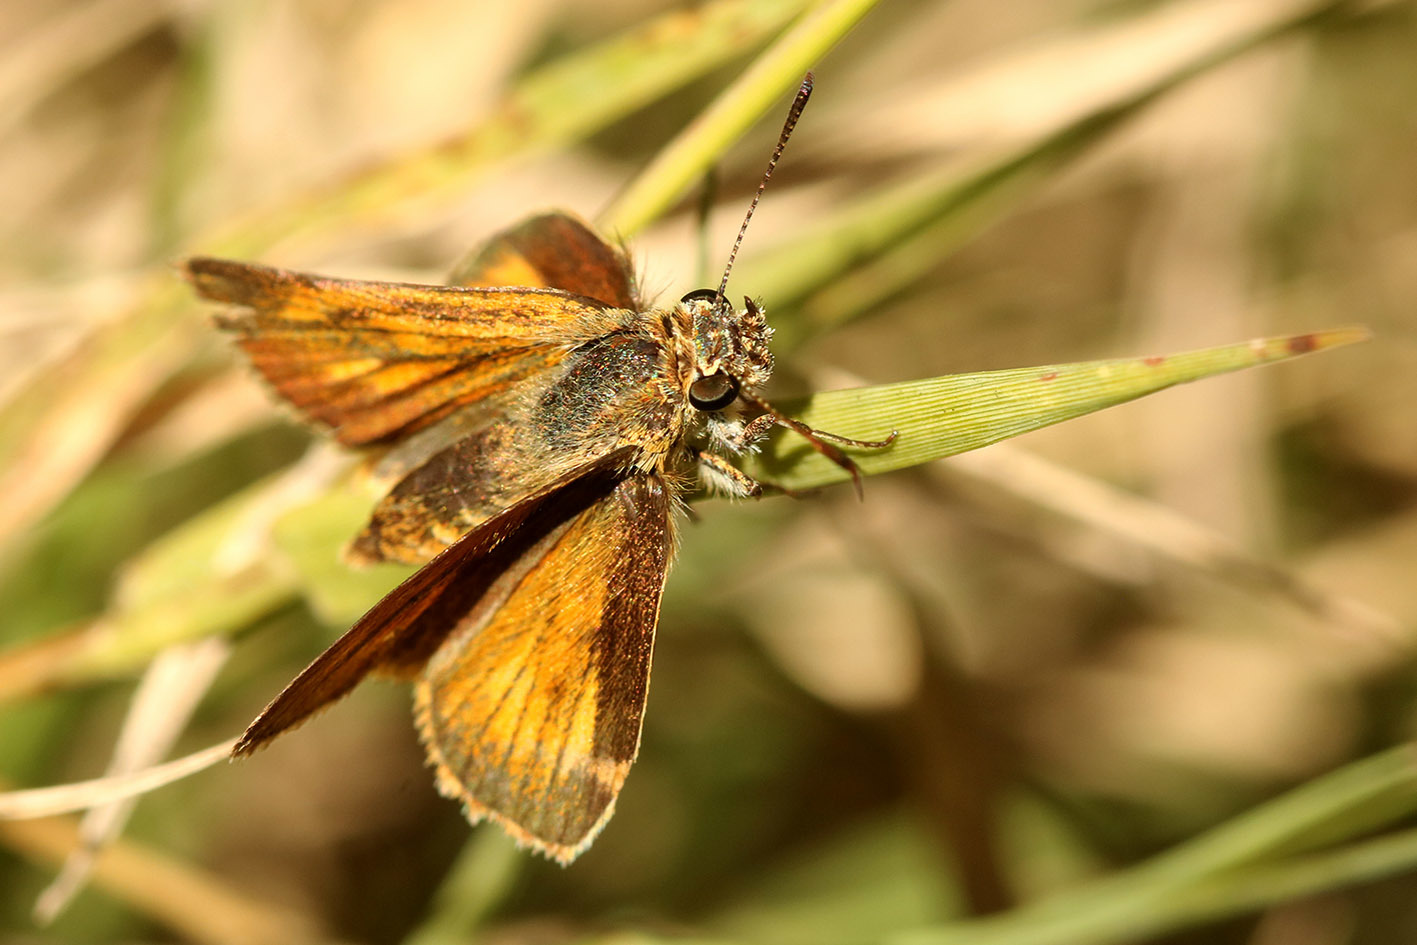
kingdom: Animalia
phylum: Arthropoda
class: Insecta
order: Lepidoptera
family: Hesperiidae
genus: Corticea
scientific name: Corticea immocerinus
